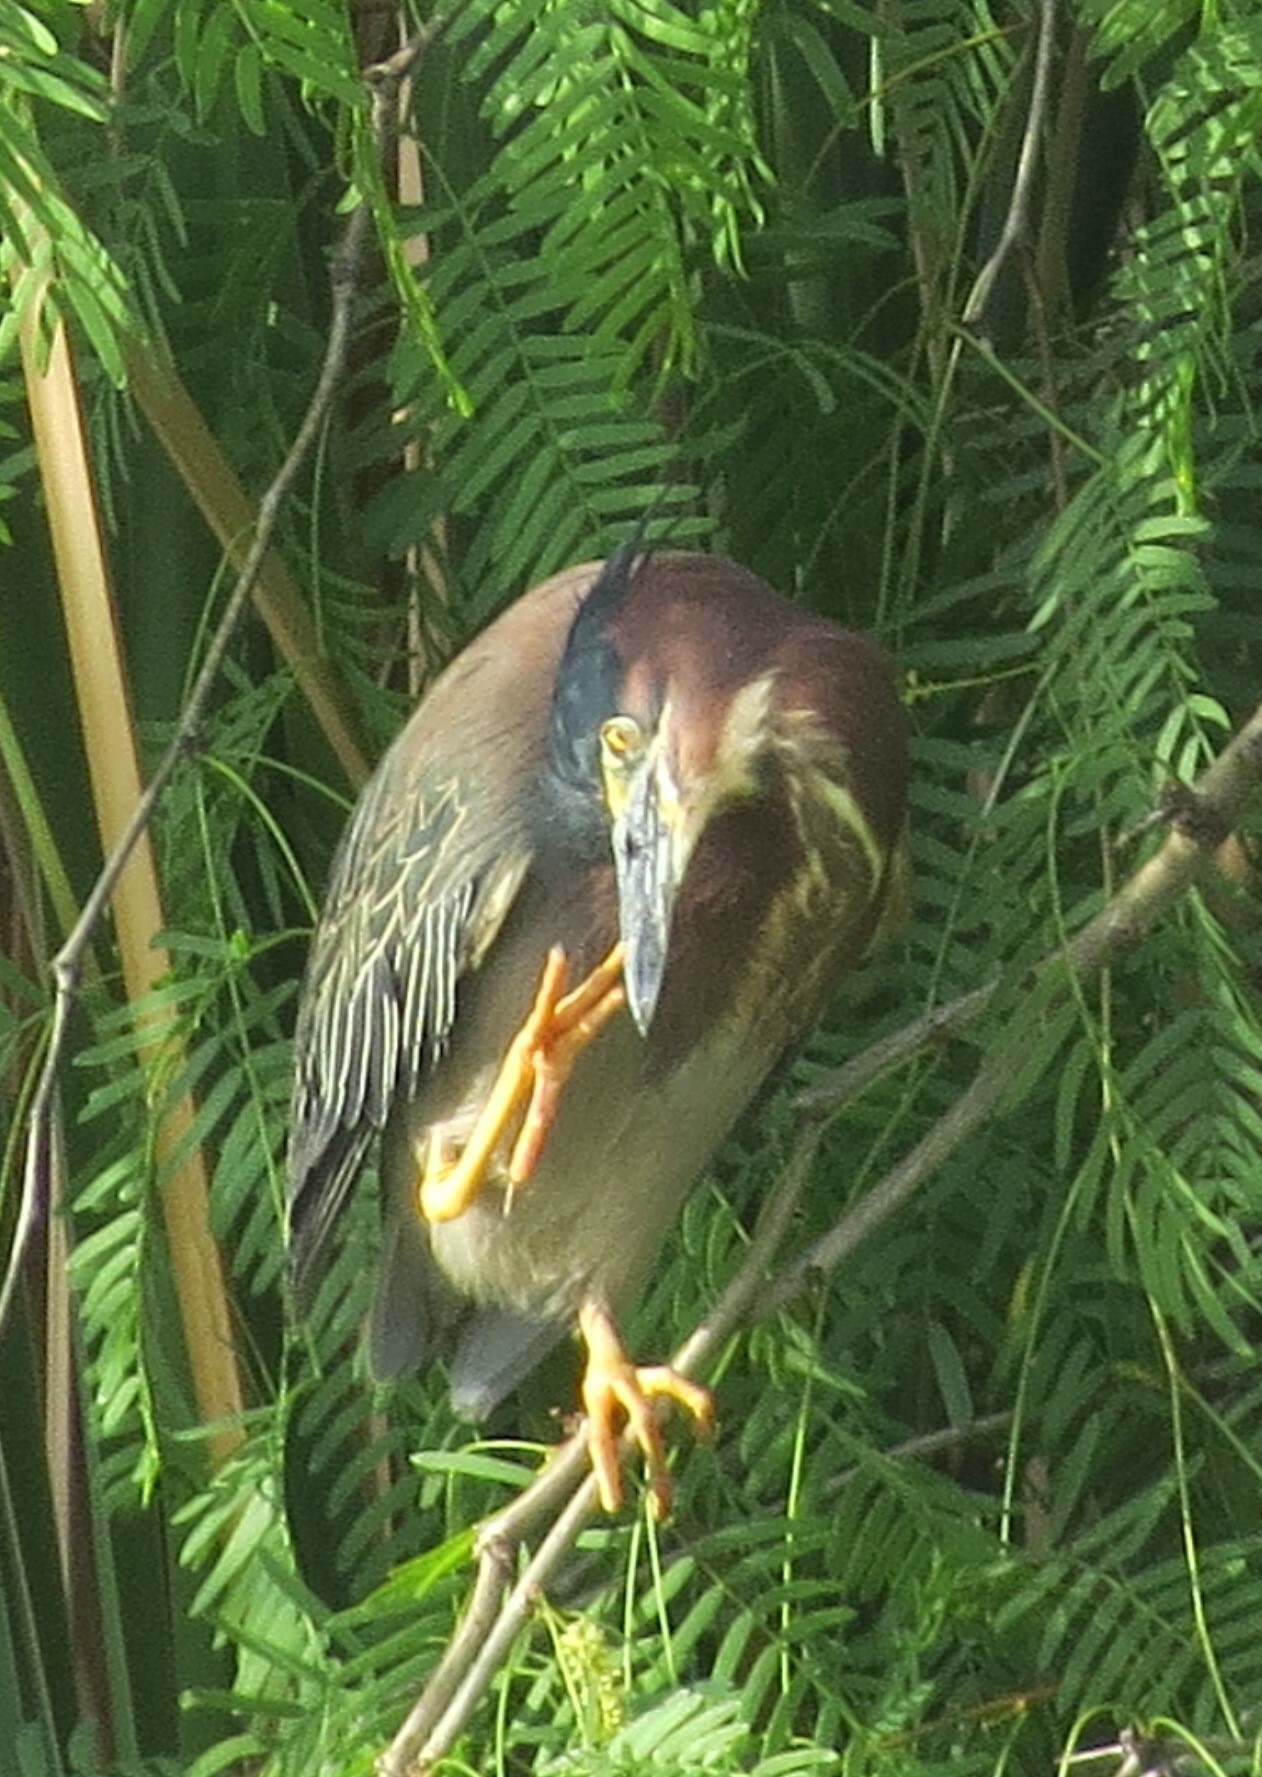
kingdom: Animalia
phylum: Chordata
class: Aves
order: Pelecaniformes
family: Ardeidae
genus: Butorides
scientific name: Butorides virescens
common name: Green heron
